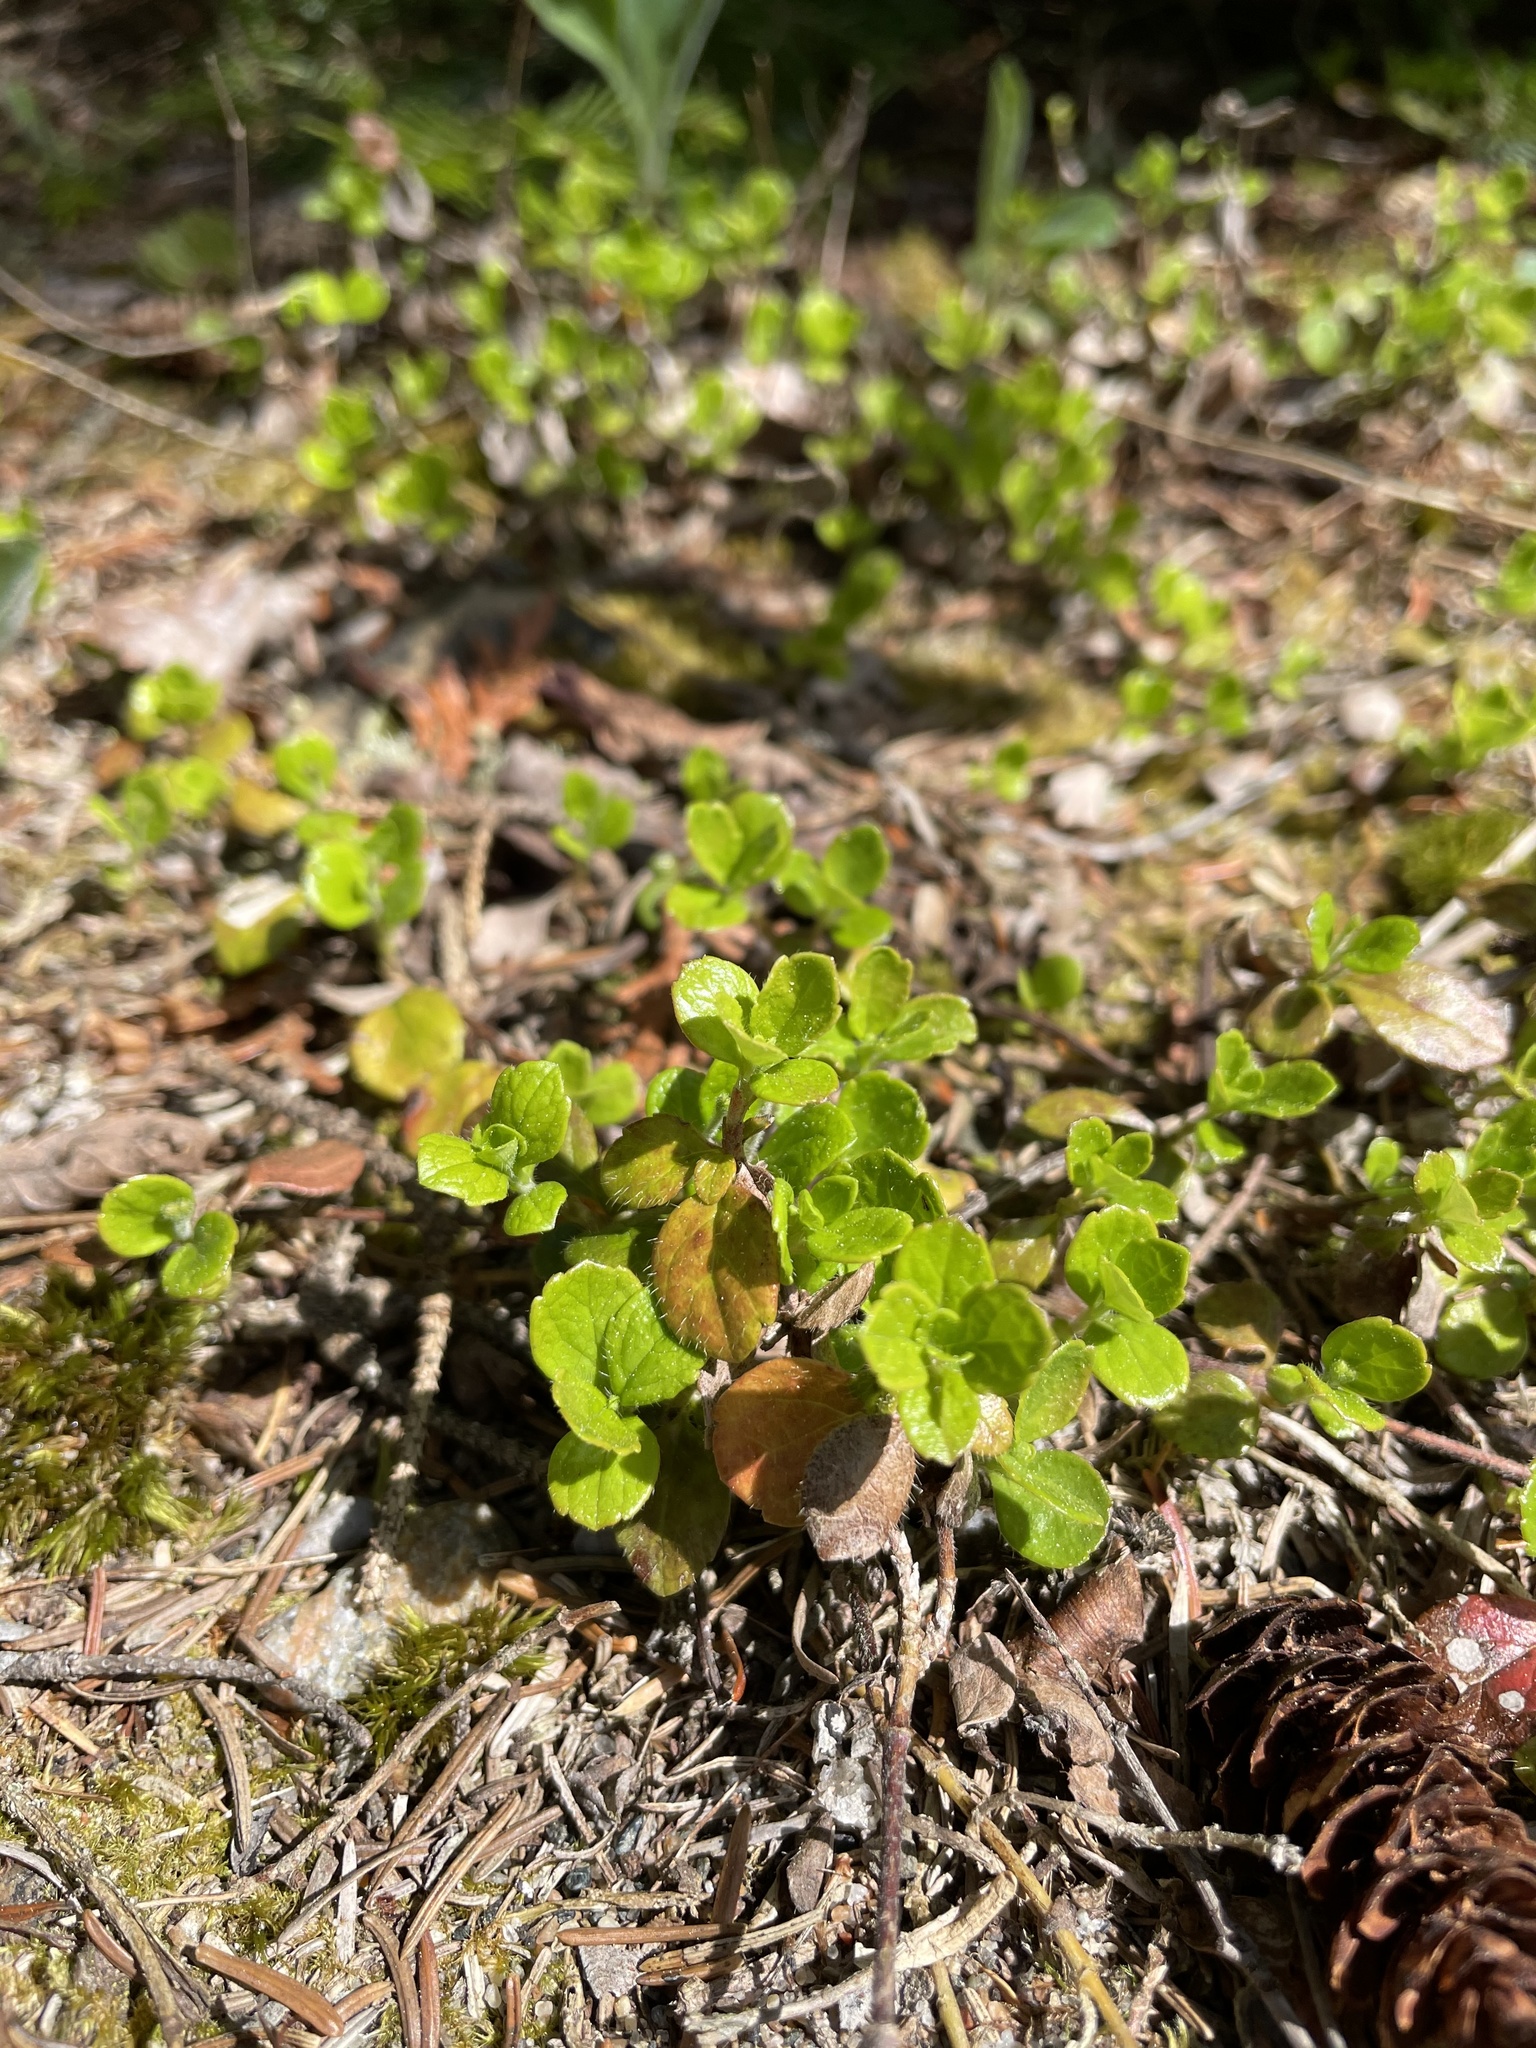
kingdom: Plantae
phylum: Tracheophyta
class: Magnoliopsida
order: Dipsacales
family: Caprifoliaceae
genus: Linnaea
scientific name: Linnaea borealis
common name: Twinflower
